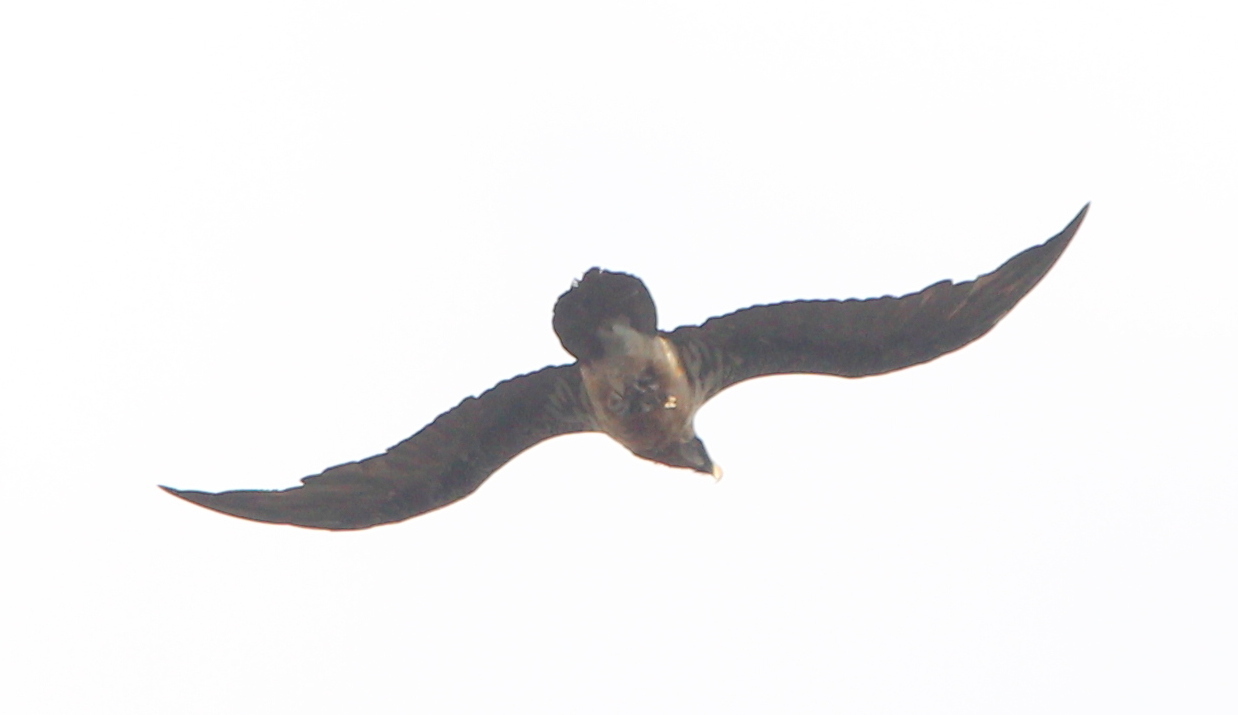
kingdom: Animalia
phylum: Chordata
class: Aves
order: Accipitriformes
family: Accipitridae
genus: Gypaetus
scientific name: Gypaetus barbatus
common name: Bearded vulture
